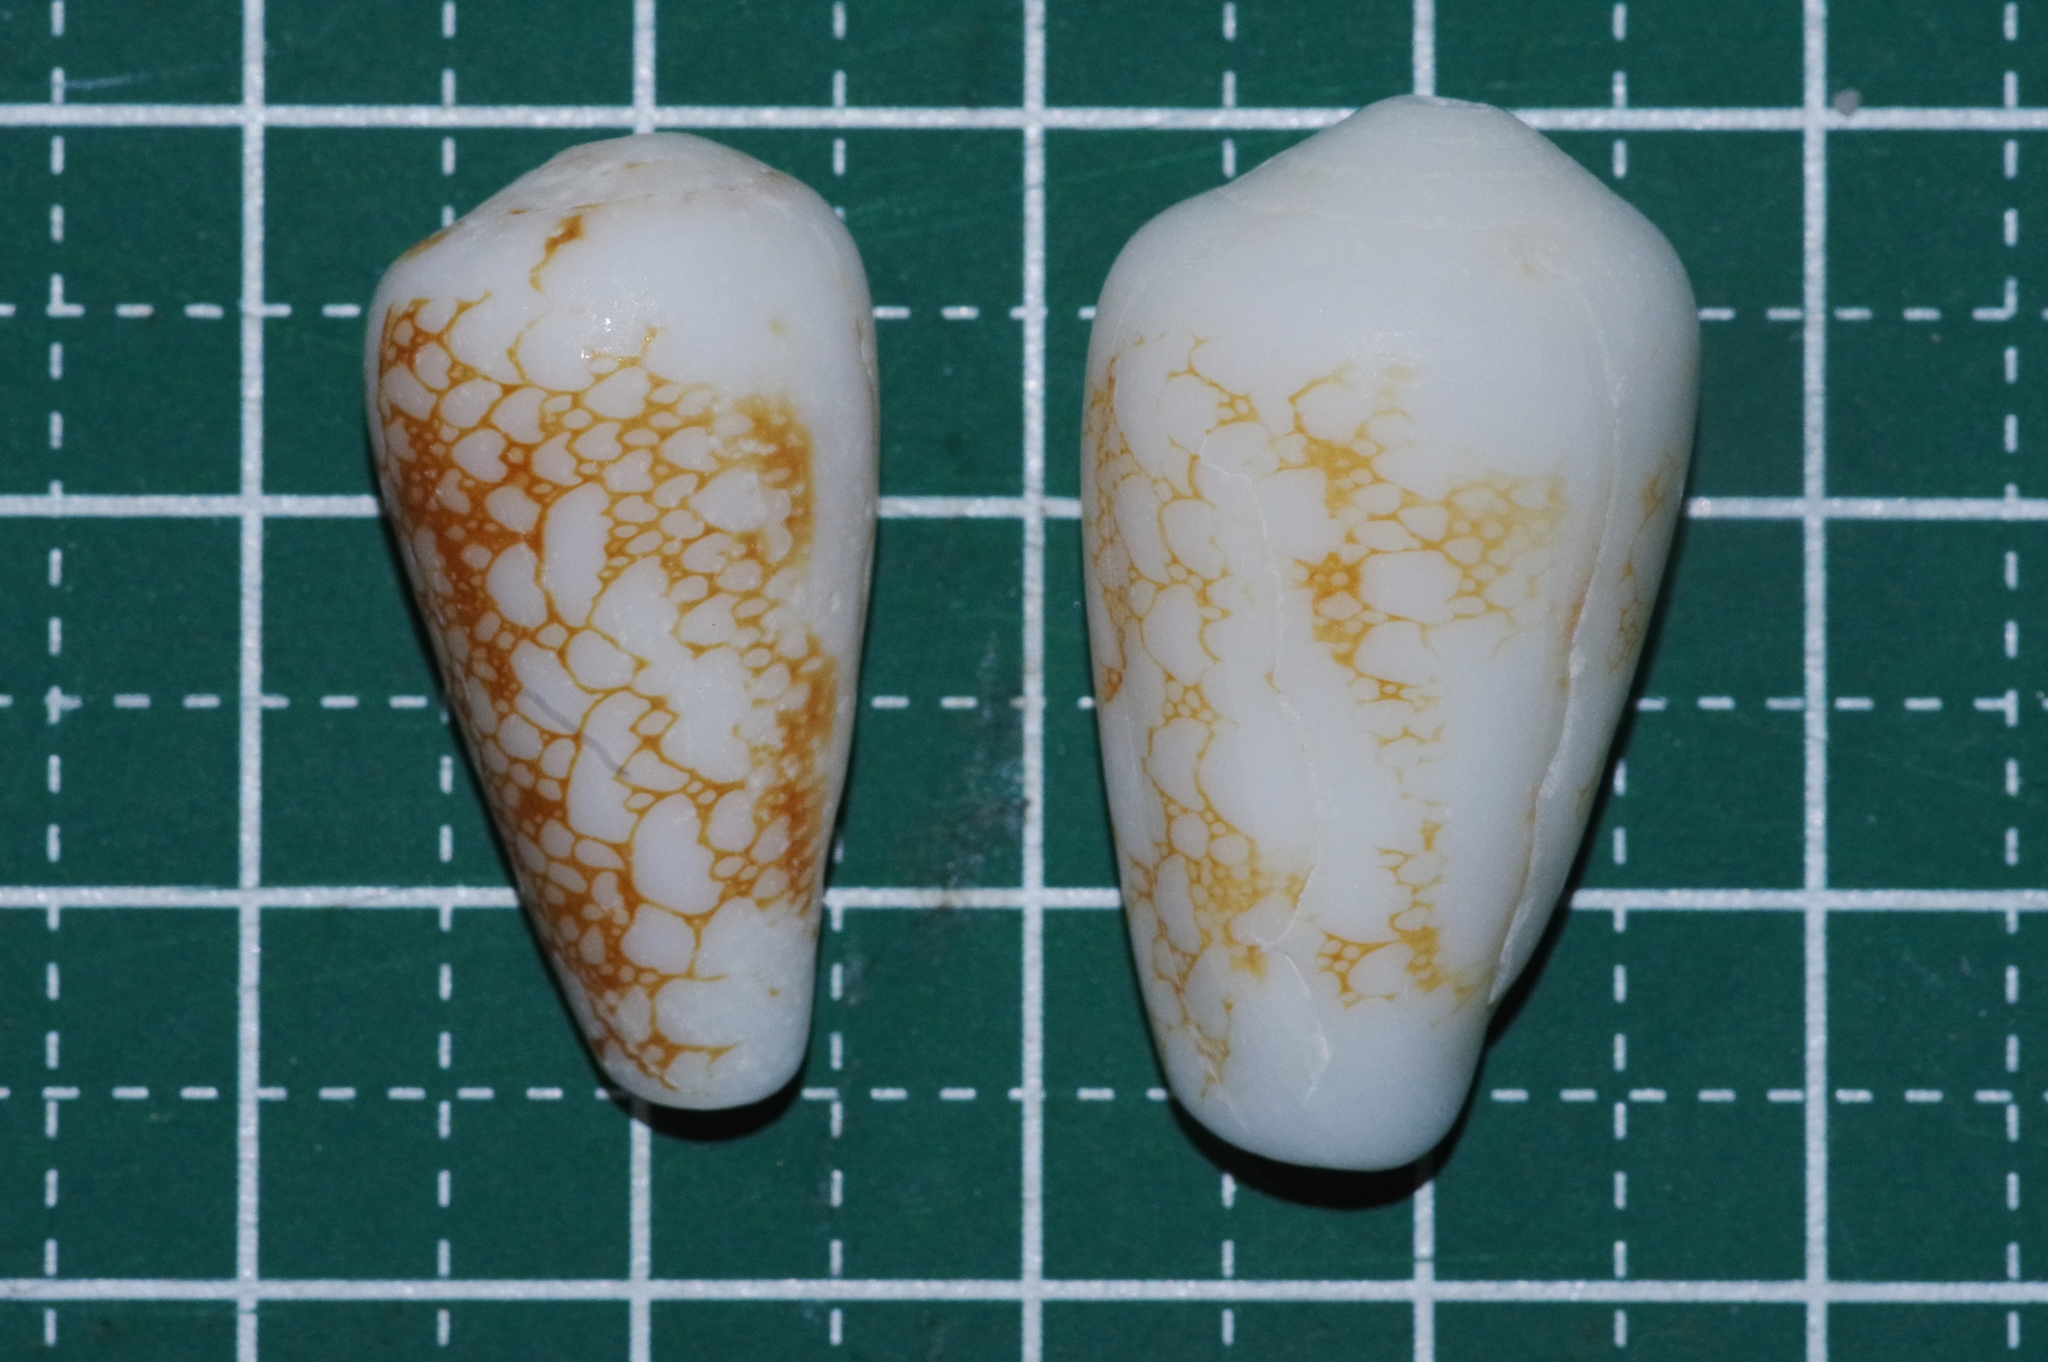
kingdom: Animalia
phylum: Mollusca
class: Gastropoda
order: Neogastropoda
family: Conidae
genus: Conus
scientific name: Conus omaria
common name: Omaria cone
